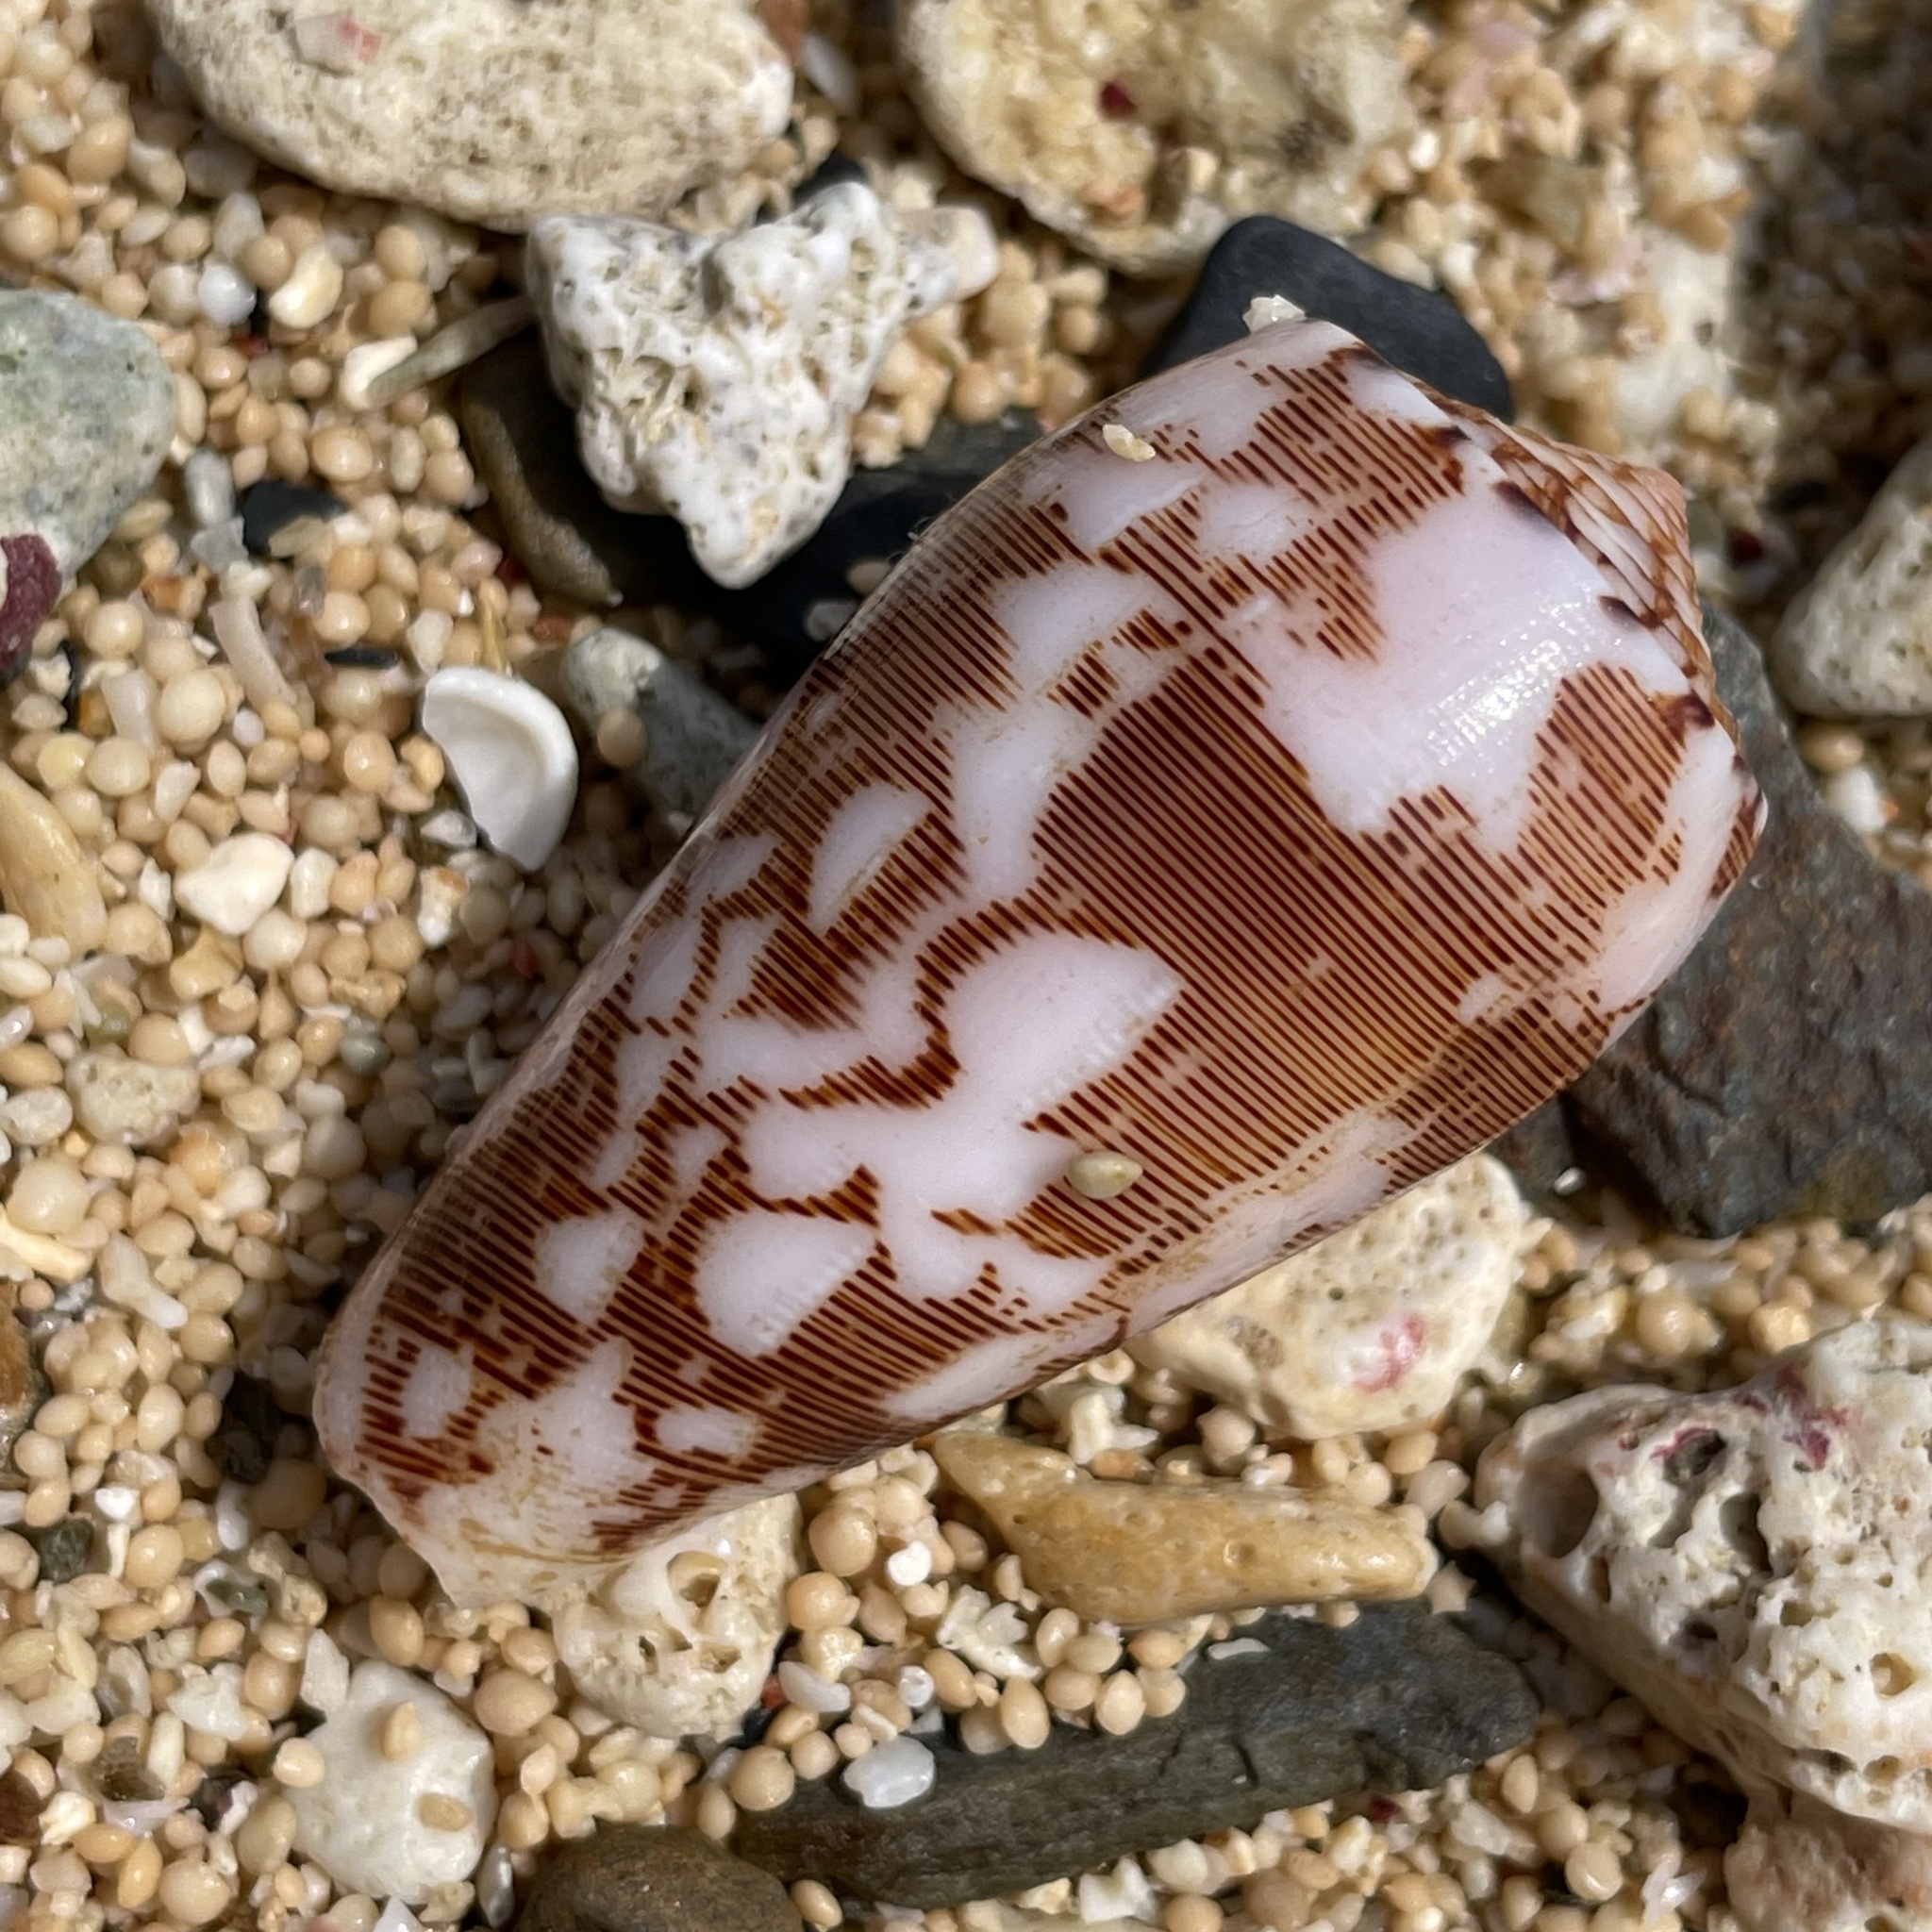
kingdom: Animalia
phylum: Mollusca
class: Gastropoda
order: Neogastropoda
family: Conidae
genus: Conus
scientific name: Conus striatus
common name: Striated cone
